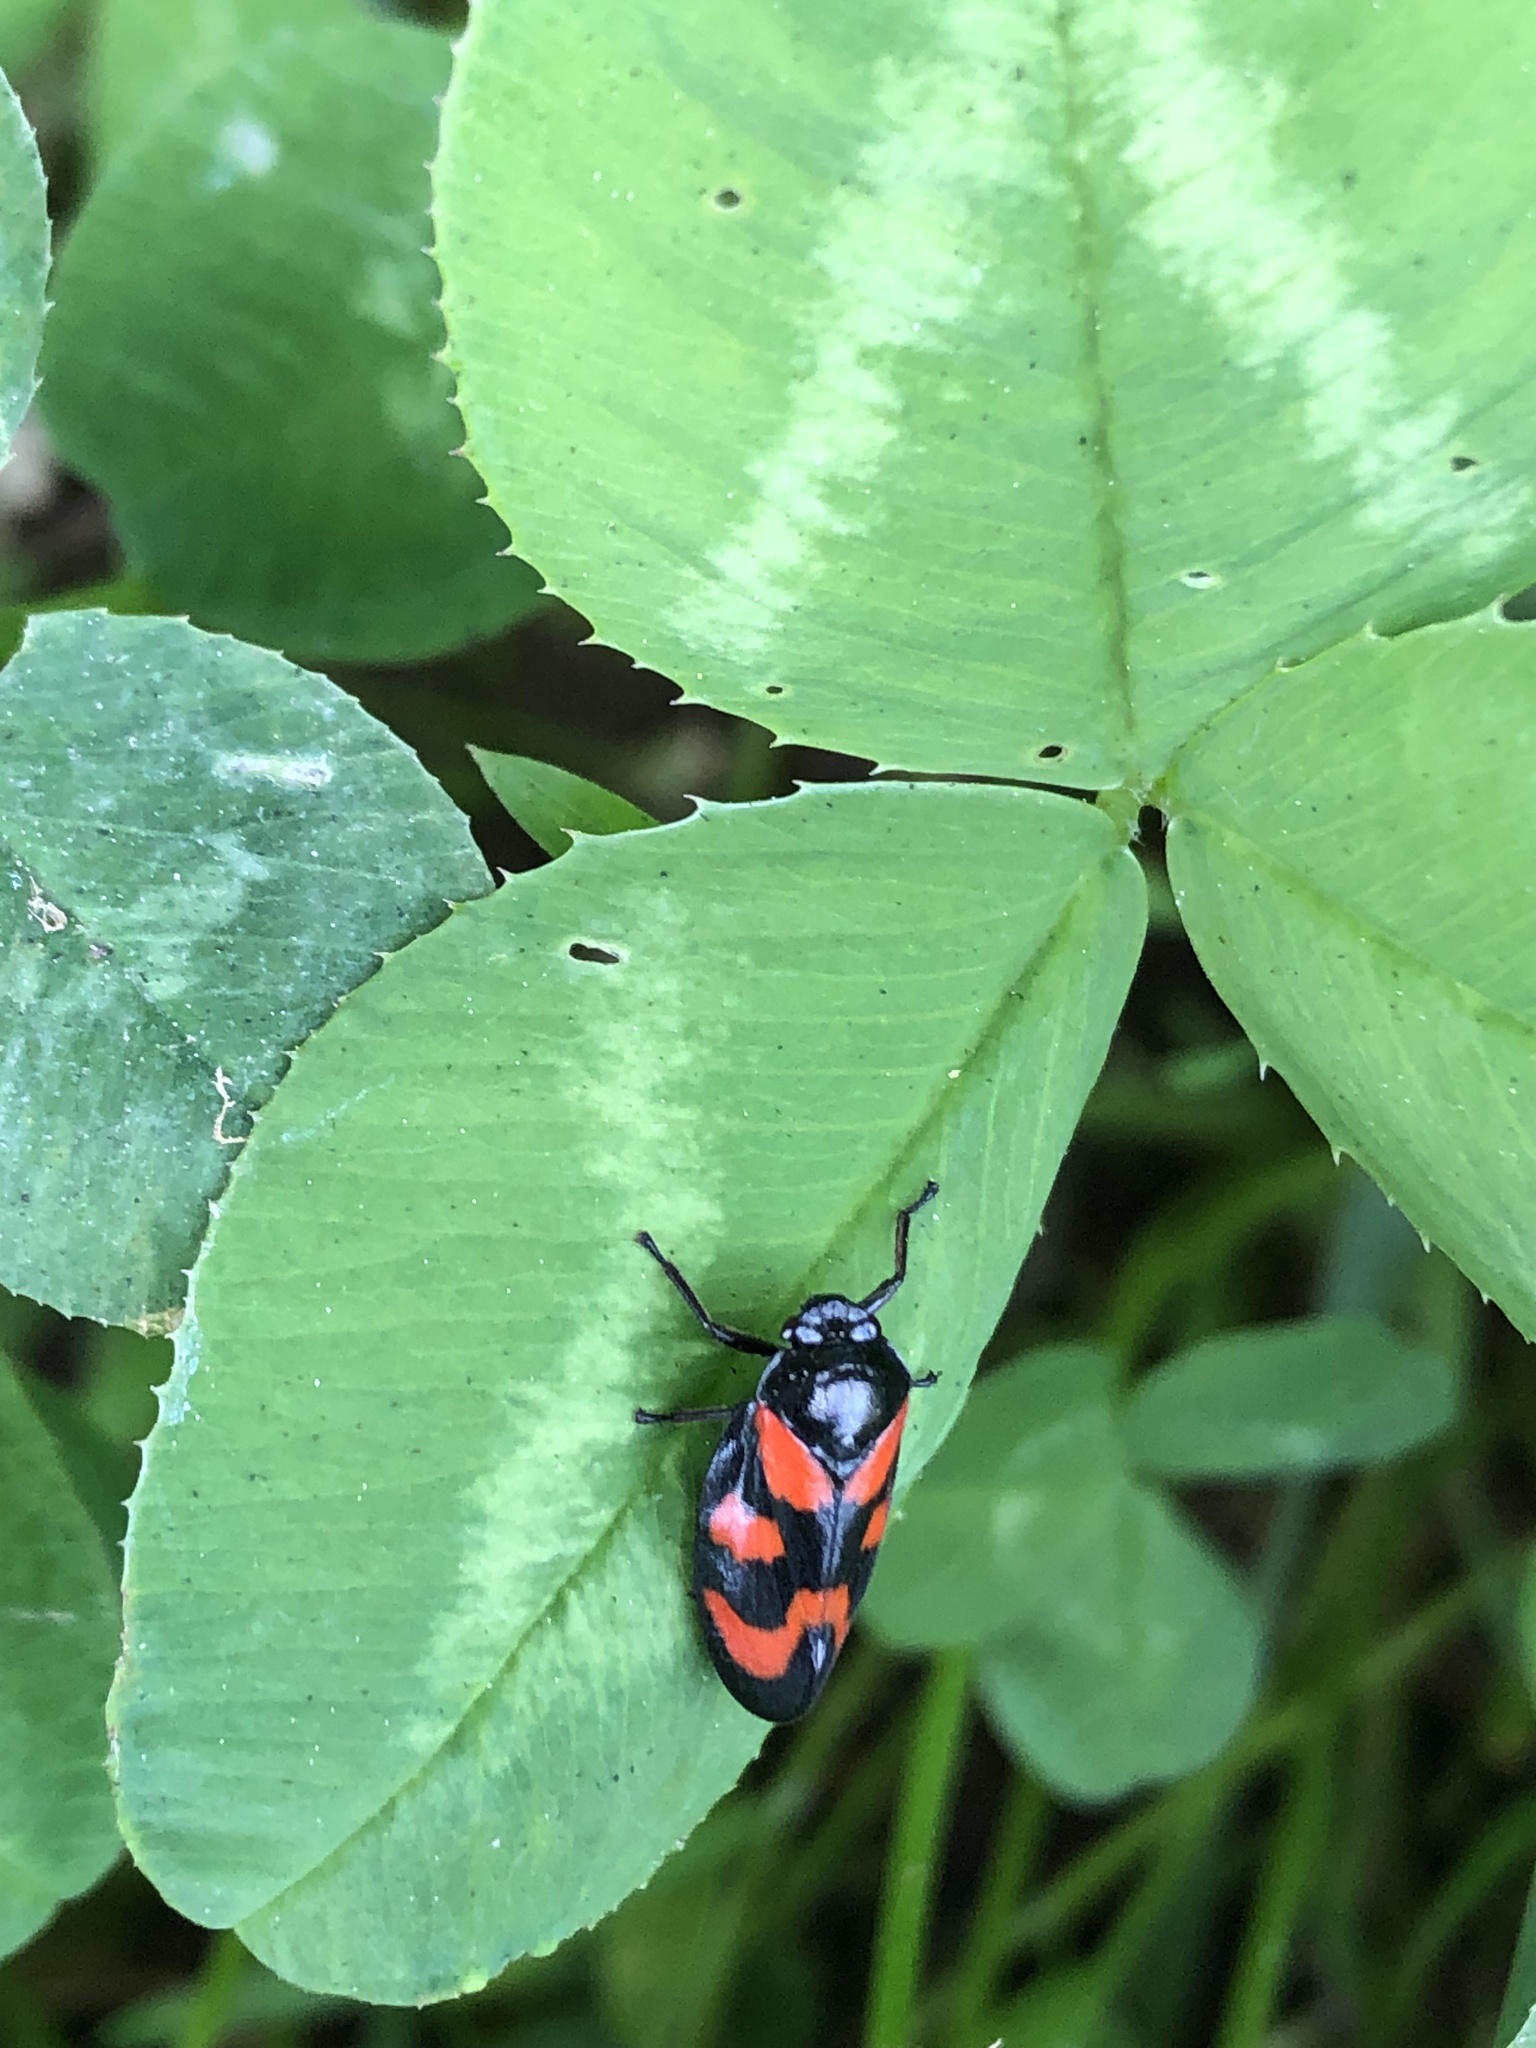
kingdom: Animalia
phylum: Arthropoda
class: Insecta
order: Hemiptera
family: Cercopidae
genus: Cercopis
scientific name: Cercopis vulnerata
